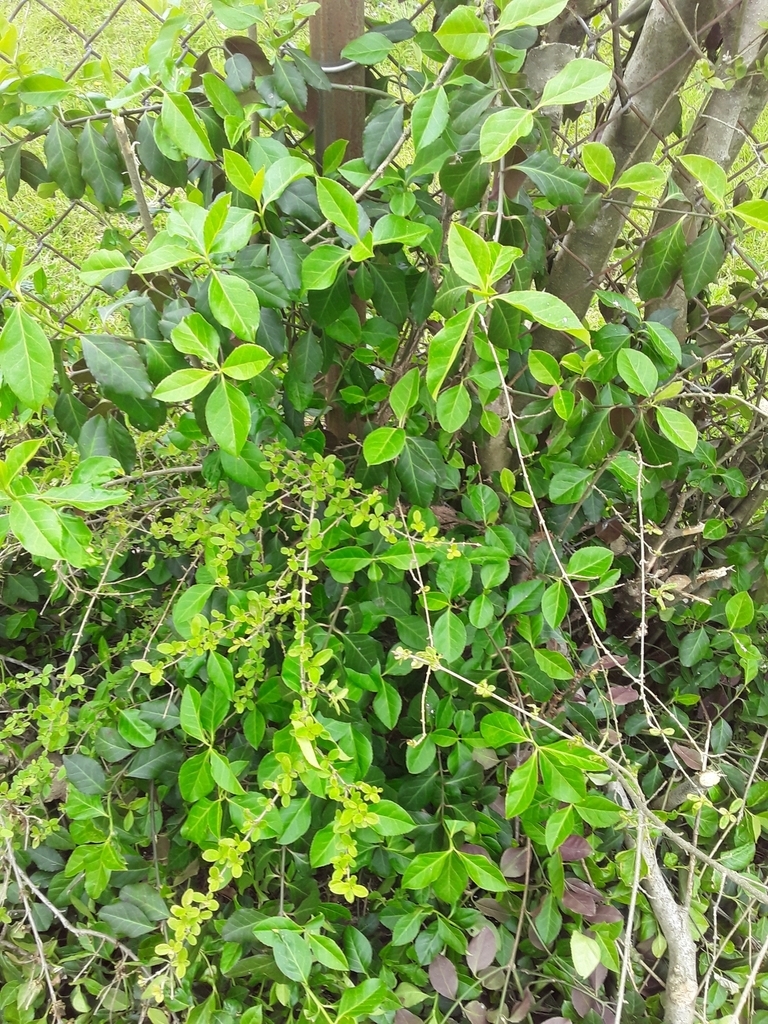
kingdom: Plantae
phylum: Tracheophyta
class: Magnoliopsida
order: Celastrales
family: Celastraceae
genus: Euonymus
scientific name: Euonymus fortunei
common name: Climbing euonymus
